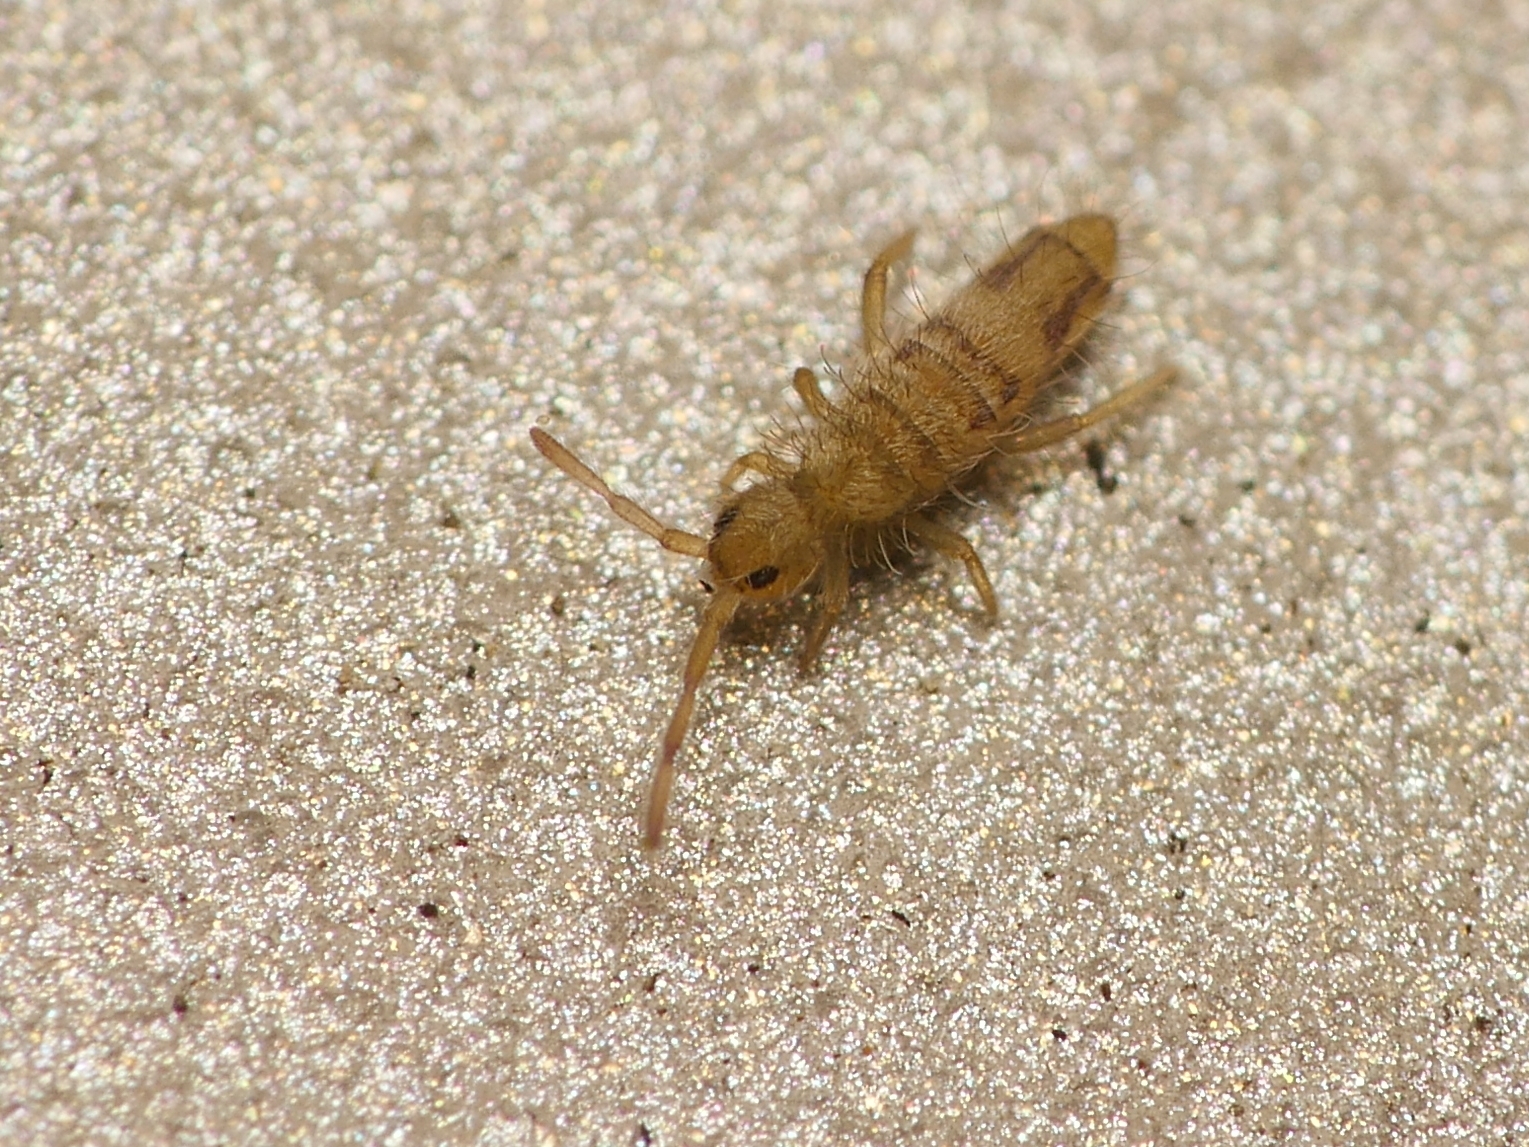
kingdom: Animalia
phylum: Arthropoda
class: Collembola
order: Entomobryomorpha
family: Entomobryidae
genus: Entomobrya
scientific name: Entomobrya nivalis
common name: Cosmopolitan springtail
